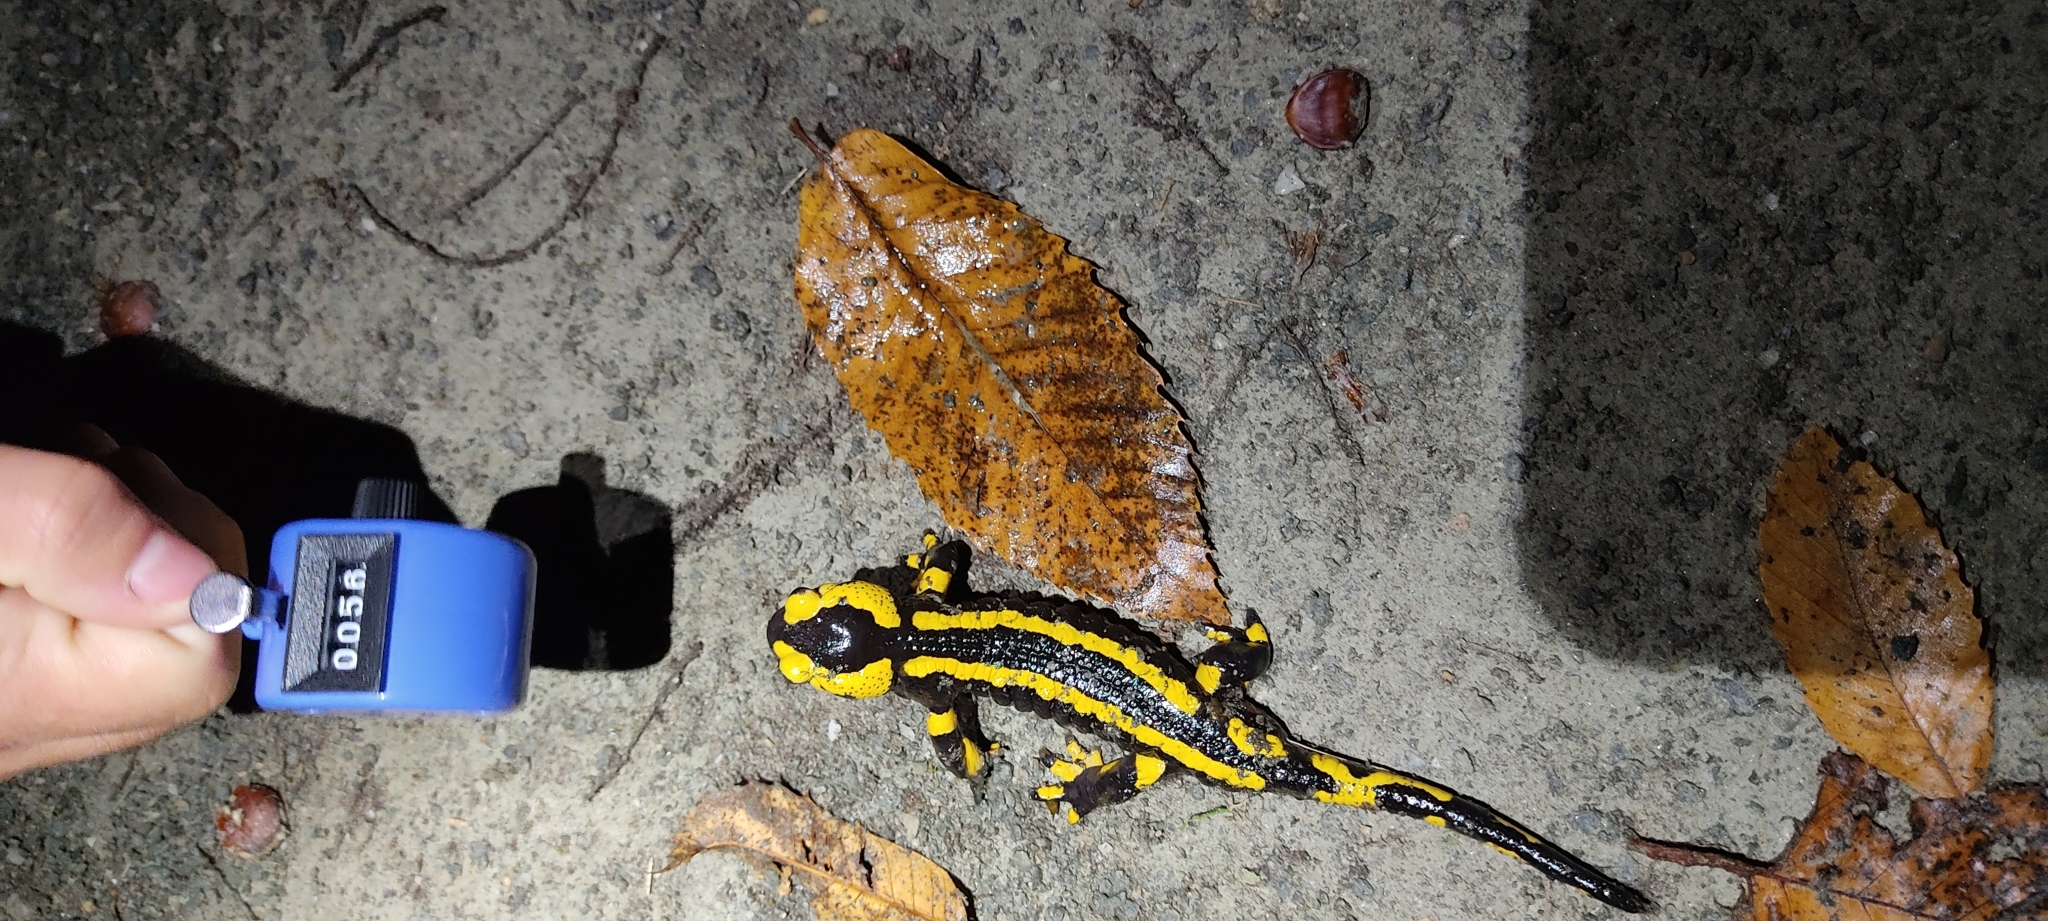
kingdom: Animalia
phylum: Chordata
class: Amphibia
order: Caudata
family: Salamandridae
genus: Salamandra
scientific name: Salamandra salamandra
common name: Fire salamander
